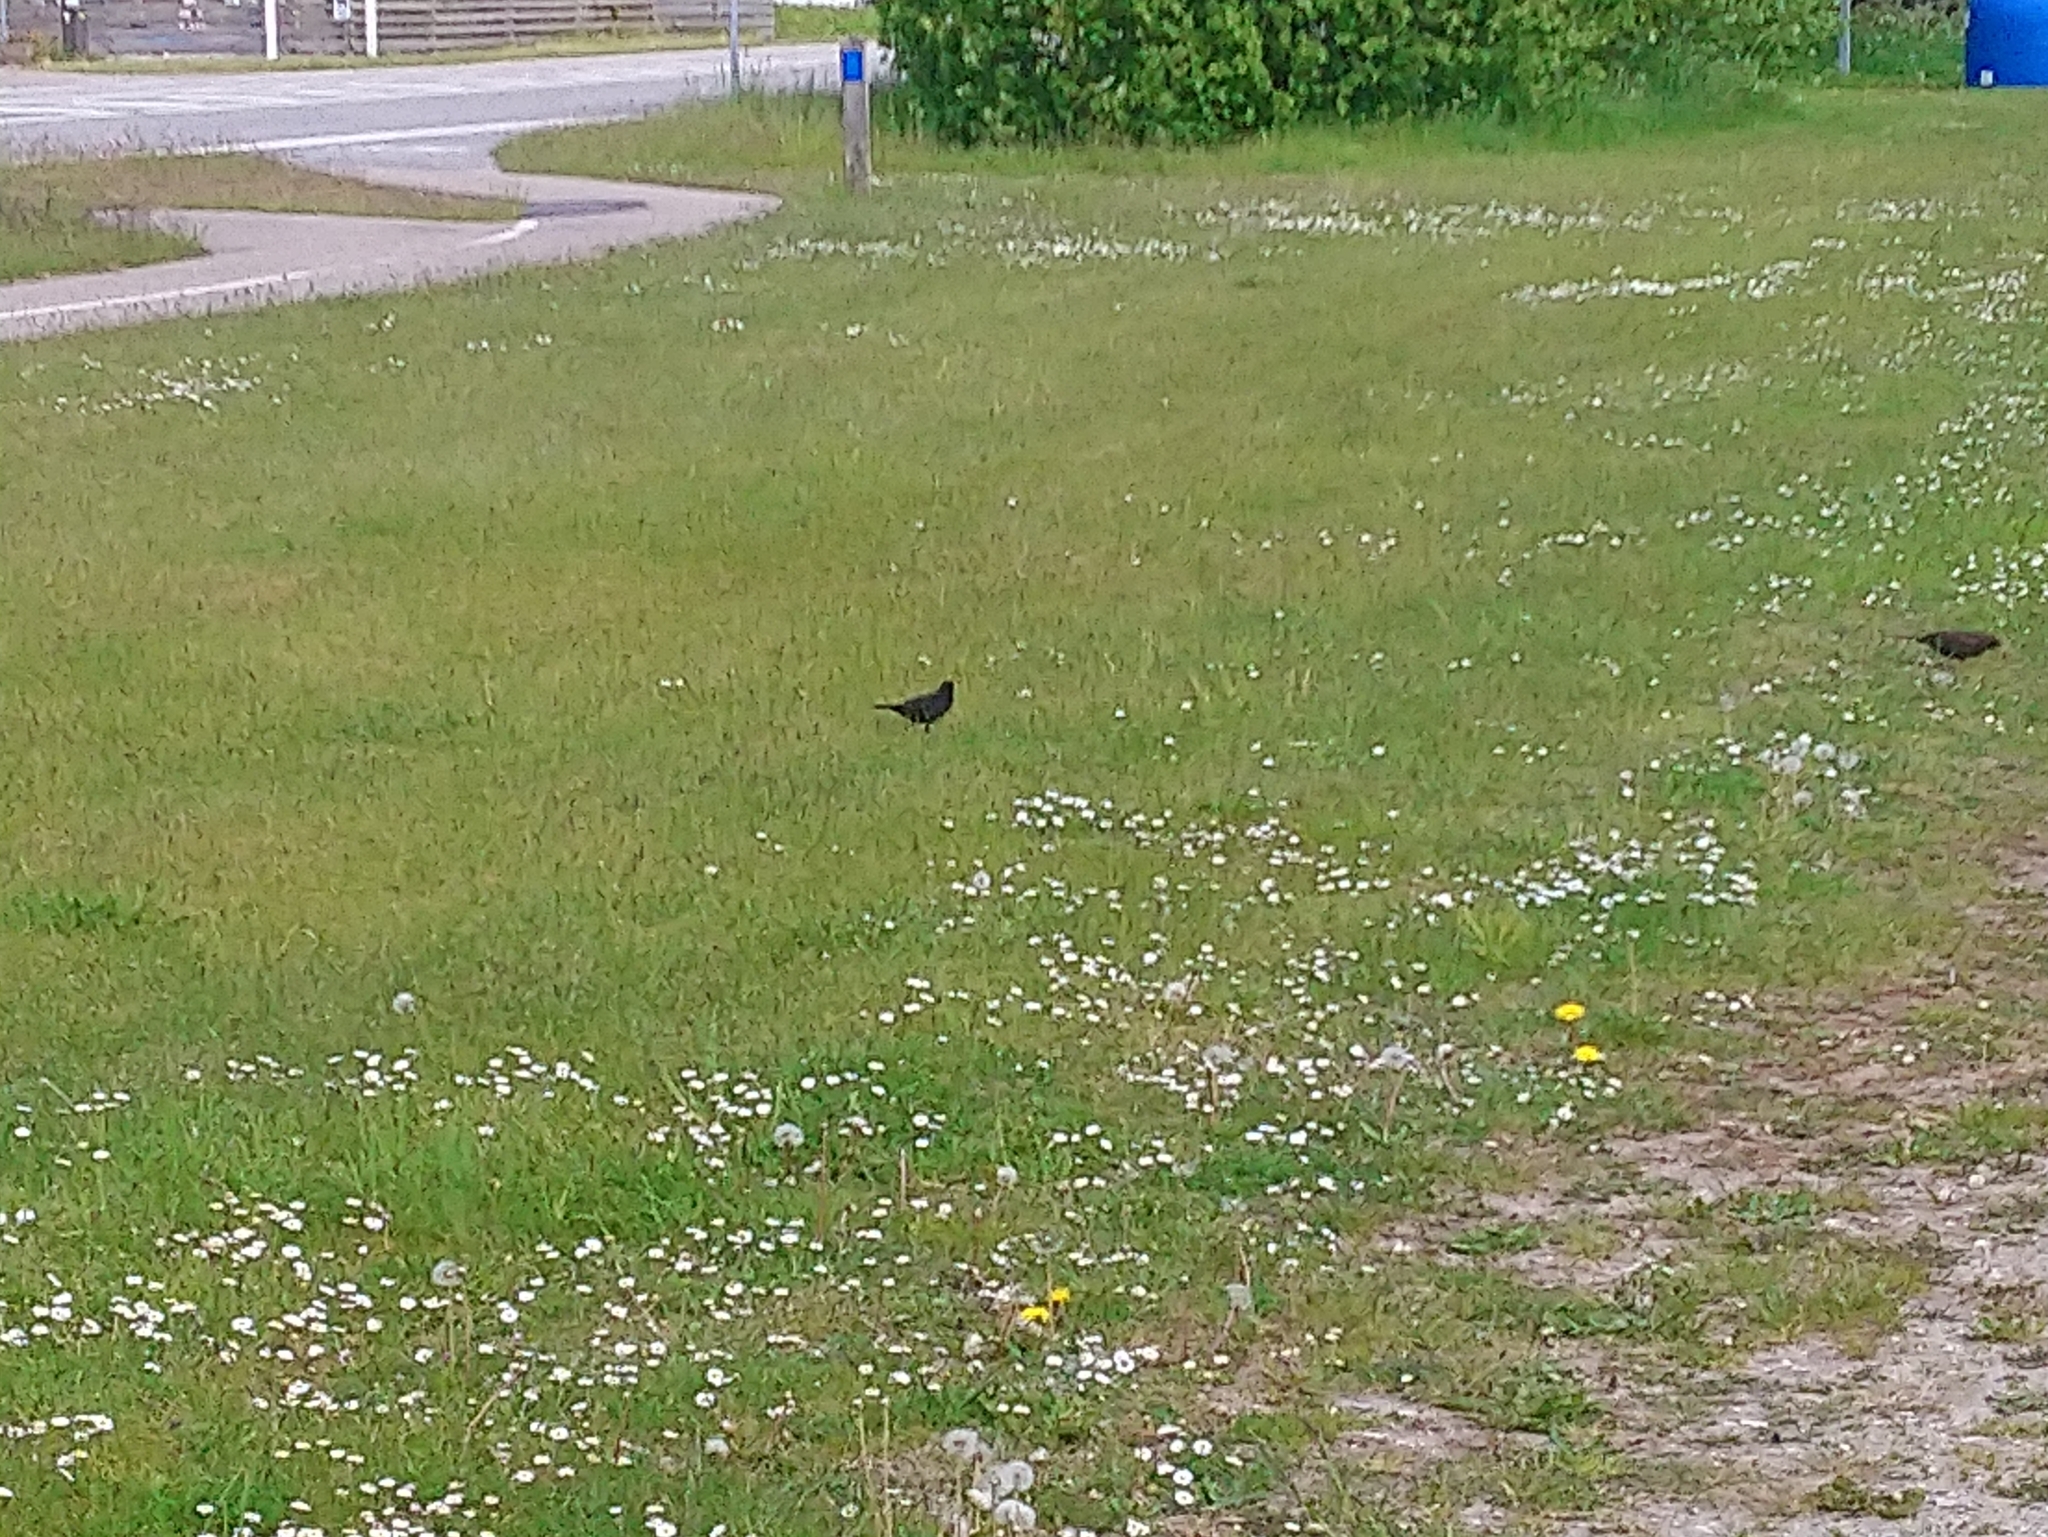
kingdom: Animalia
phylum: Chordata
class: Aves
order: Passeriformes
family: Turdidae
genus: Turdus
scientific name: Turdus merula
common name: Common blackbird
